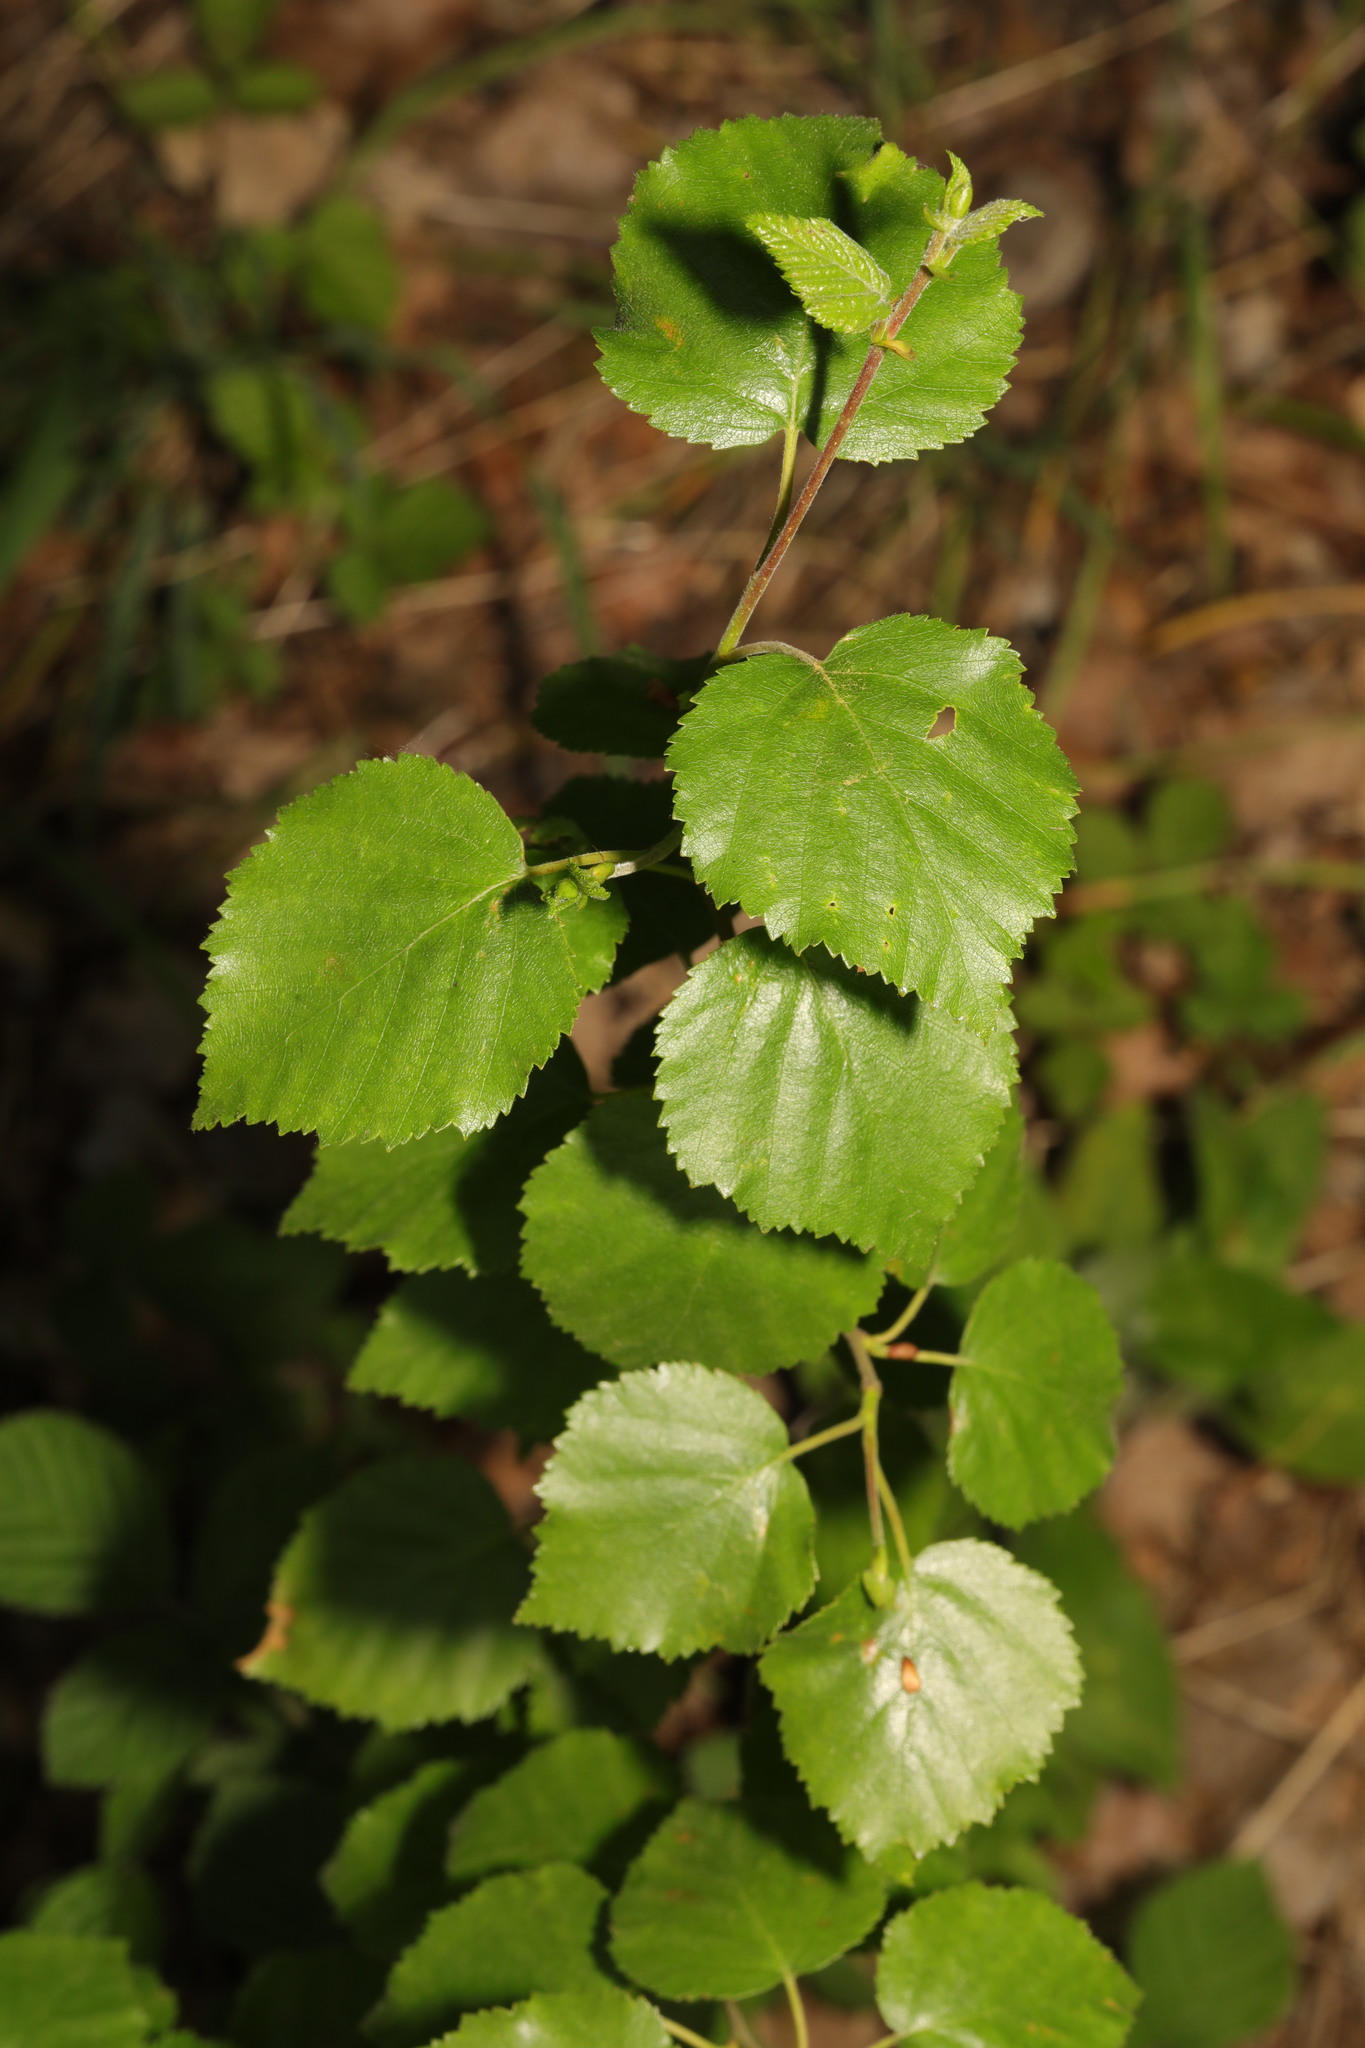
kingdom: Plantae
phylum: Tracheophyta
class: Magnoliopsida
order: Fagales
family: Betulaceae
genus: Betula
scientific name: Betula pubescens
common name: Downy birch
